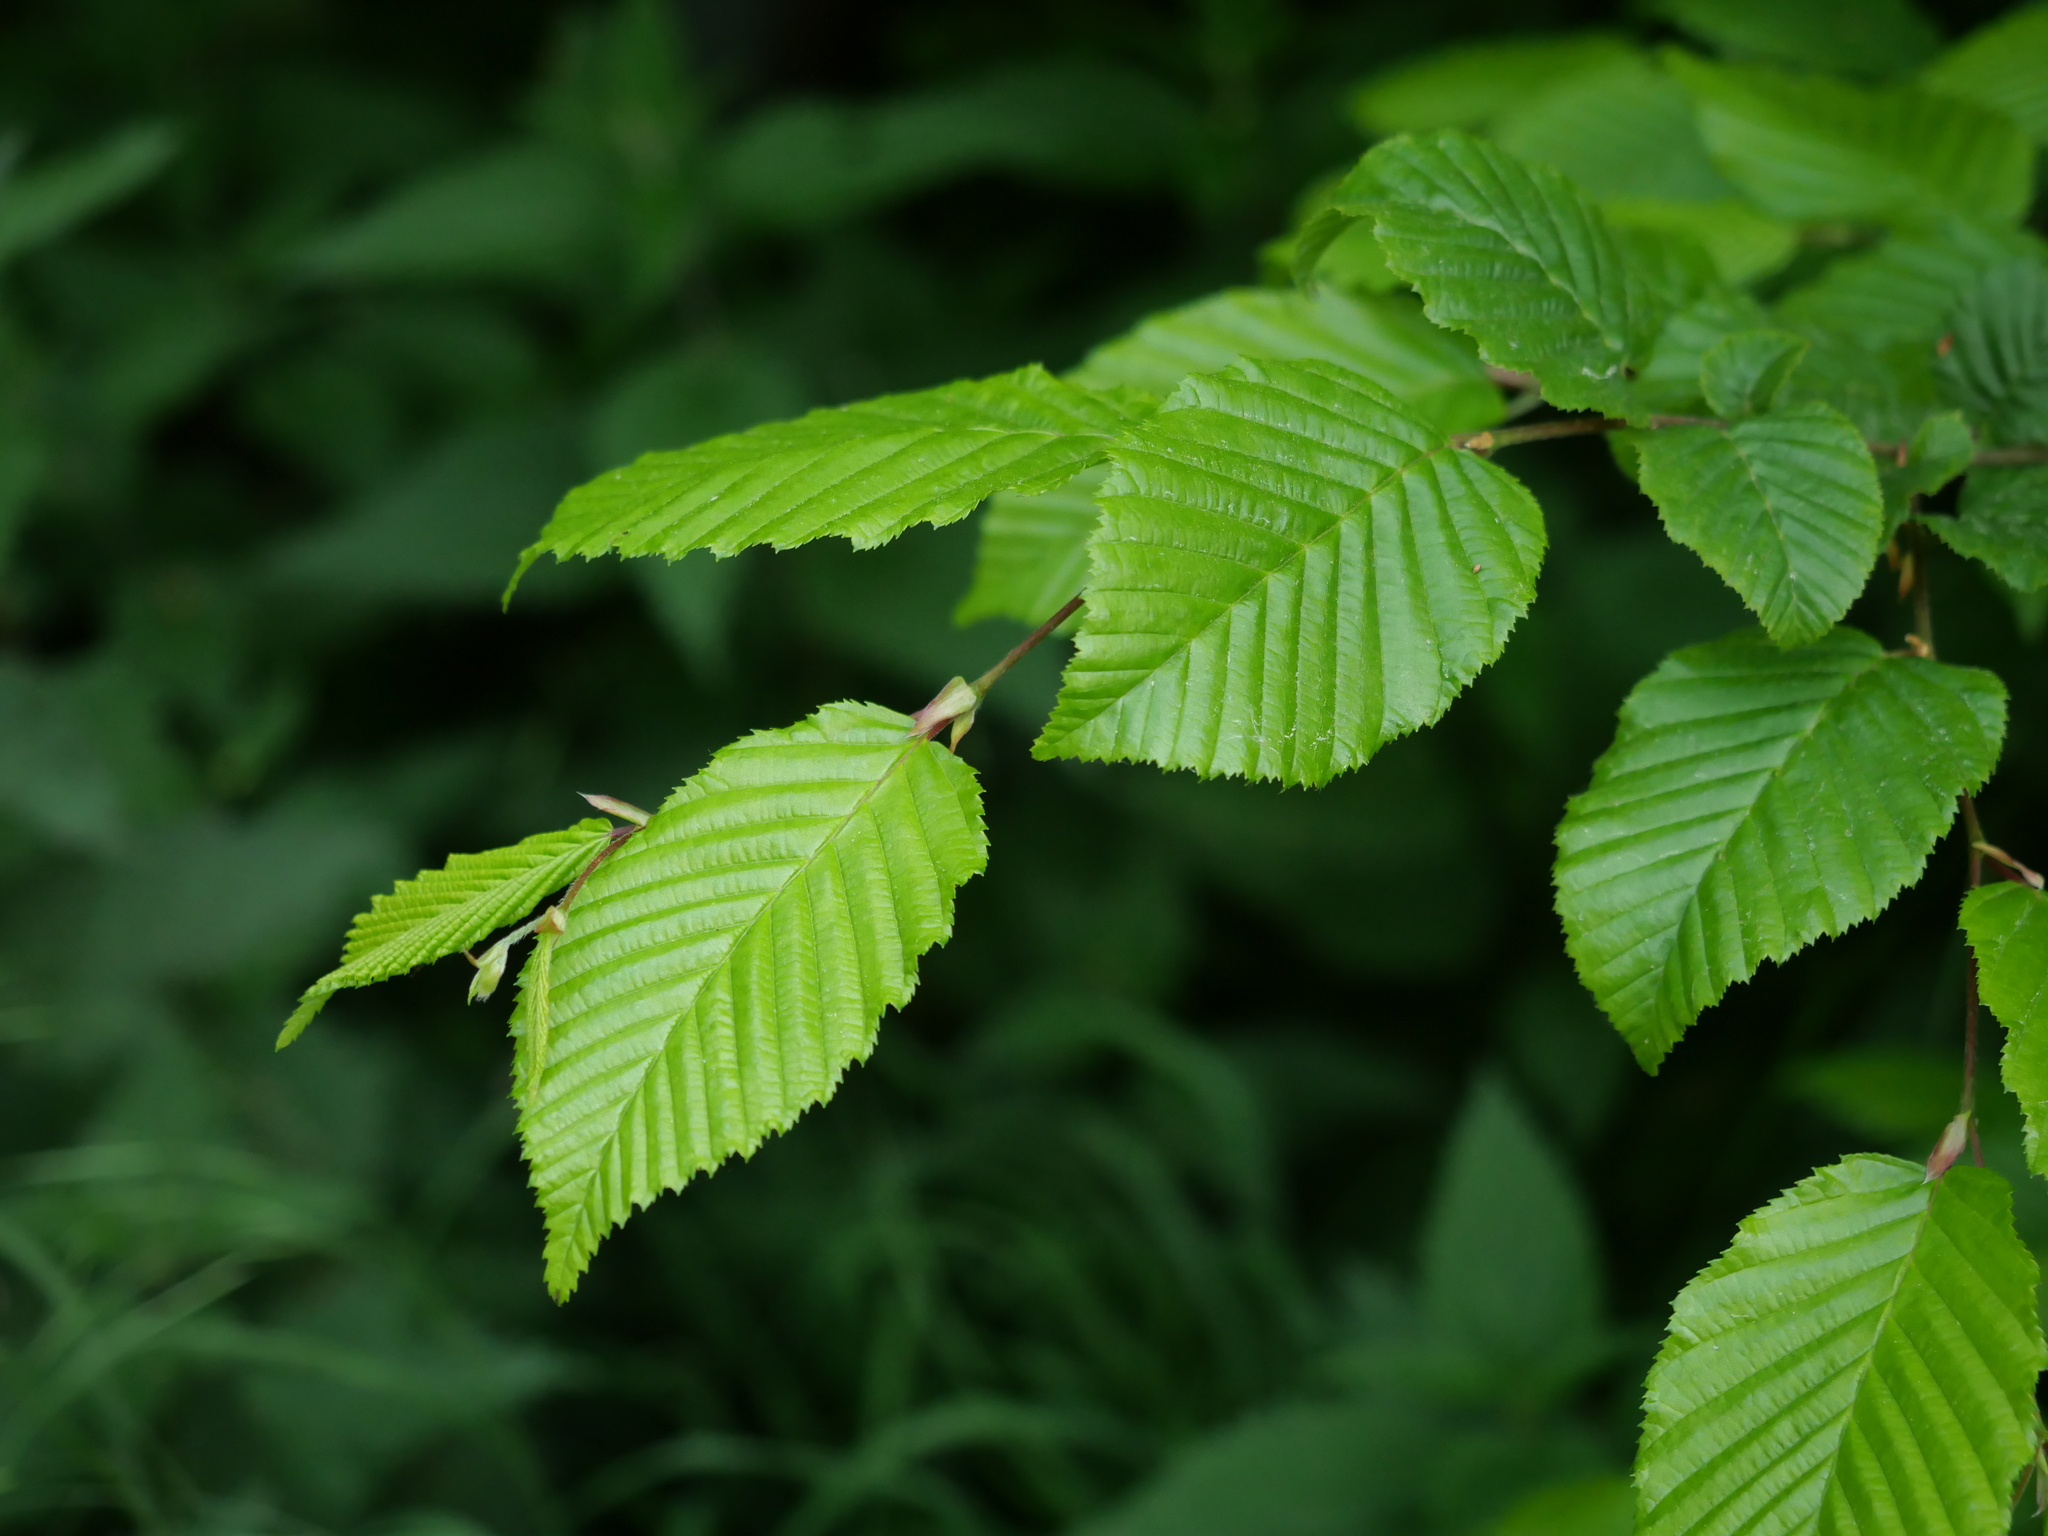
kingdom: Plantae
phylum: Tracheophyta
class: Magnoliopsida
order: Fagales
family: Betulaceae
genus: Carpinus
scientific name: Carpinus betulus
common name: Hornbeam
